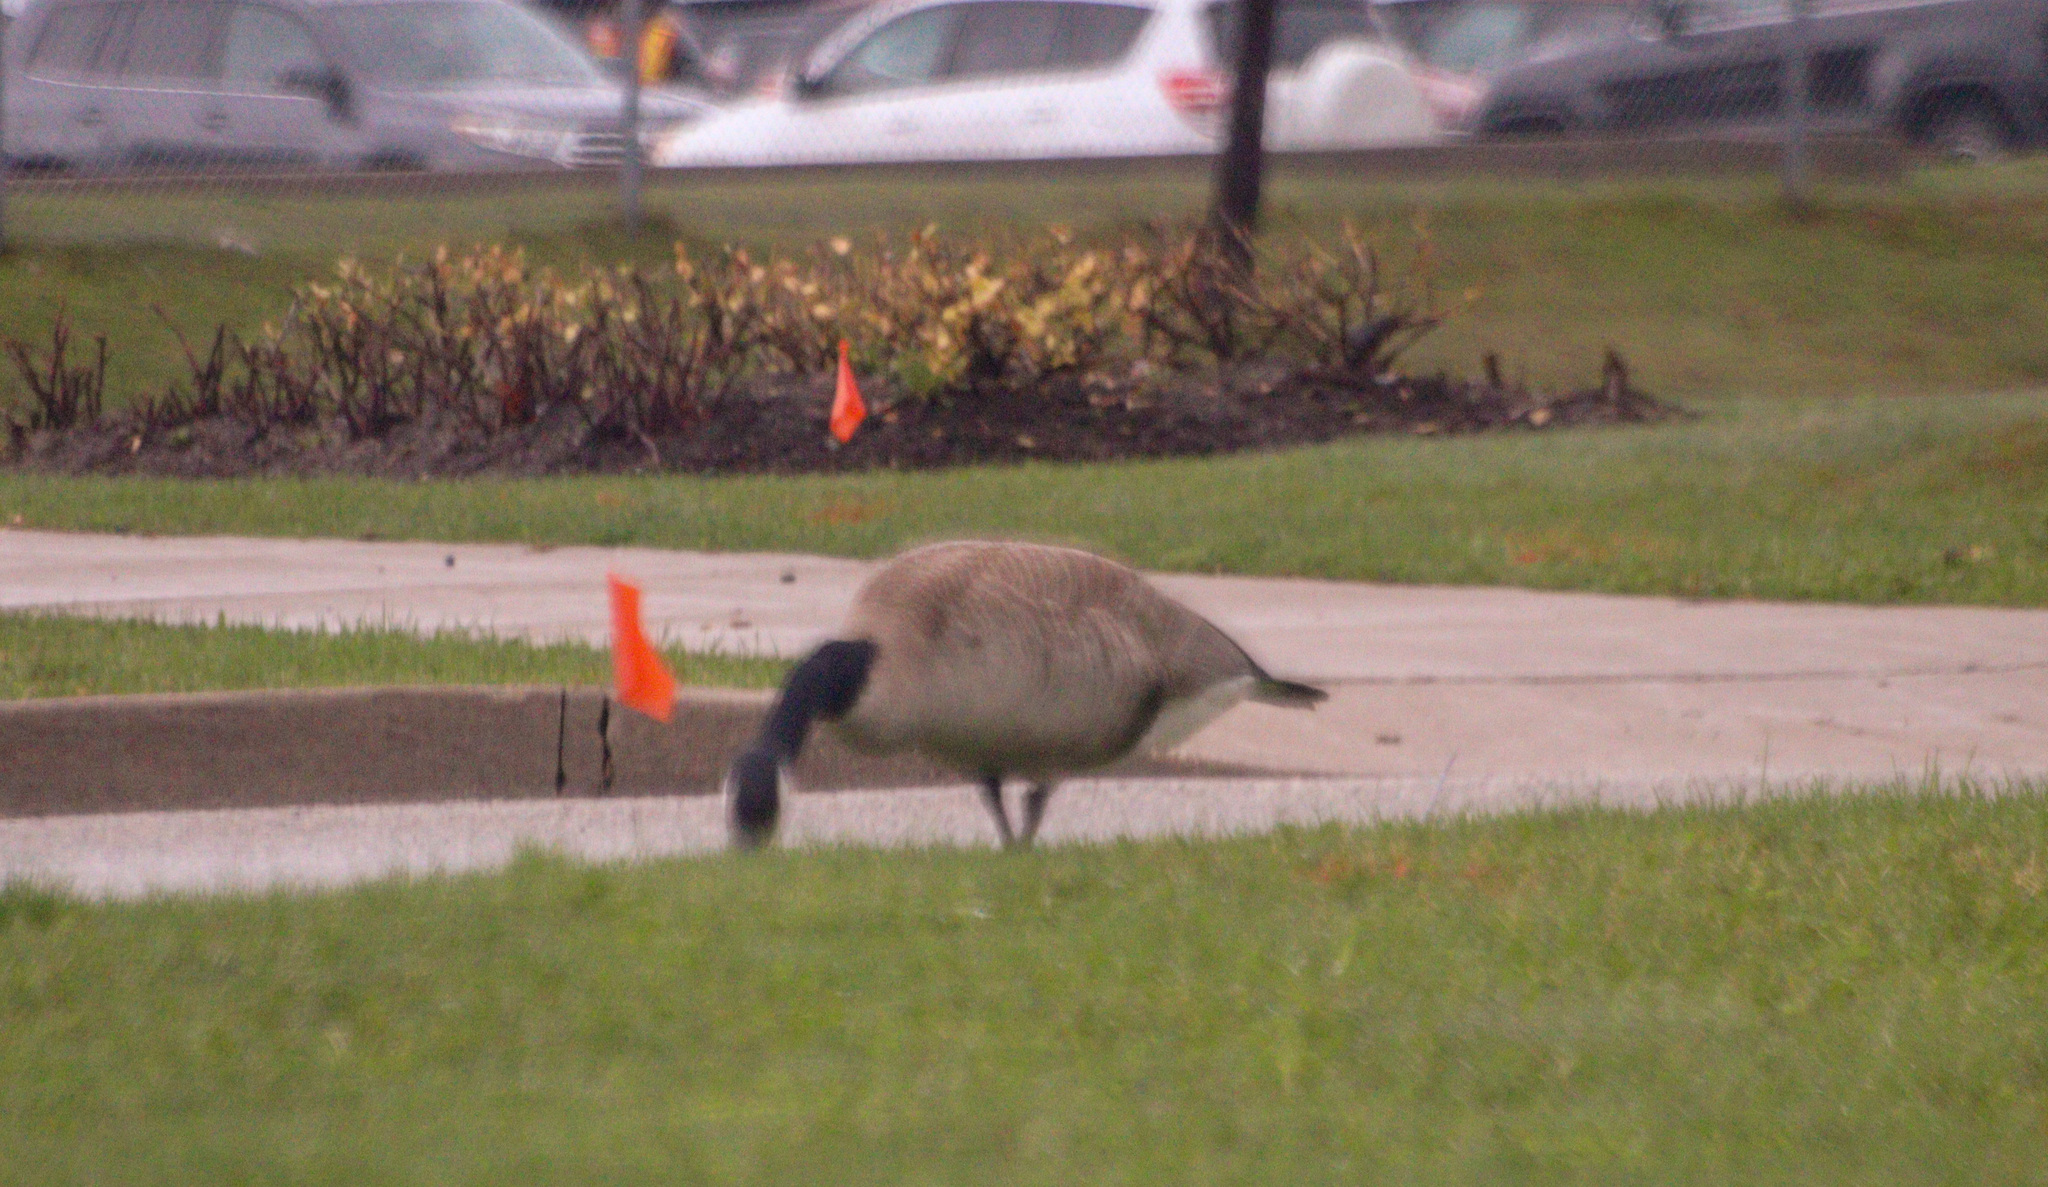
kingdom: Animalia
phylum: Chordata
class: Aves
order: Anseriformes
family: Anatidae
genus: Branta
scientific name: Branta canadensis
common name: Canada goose
